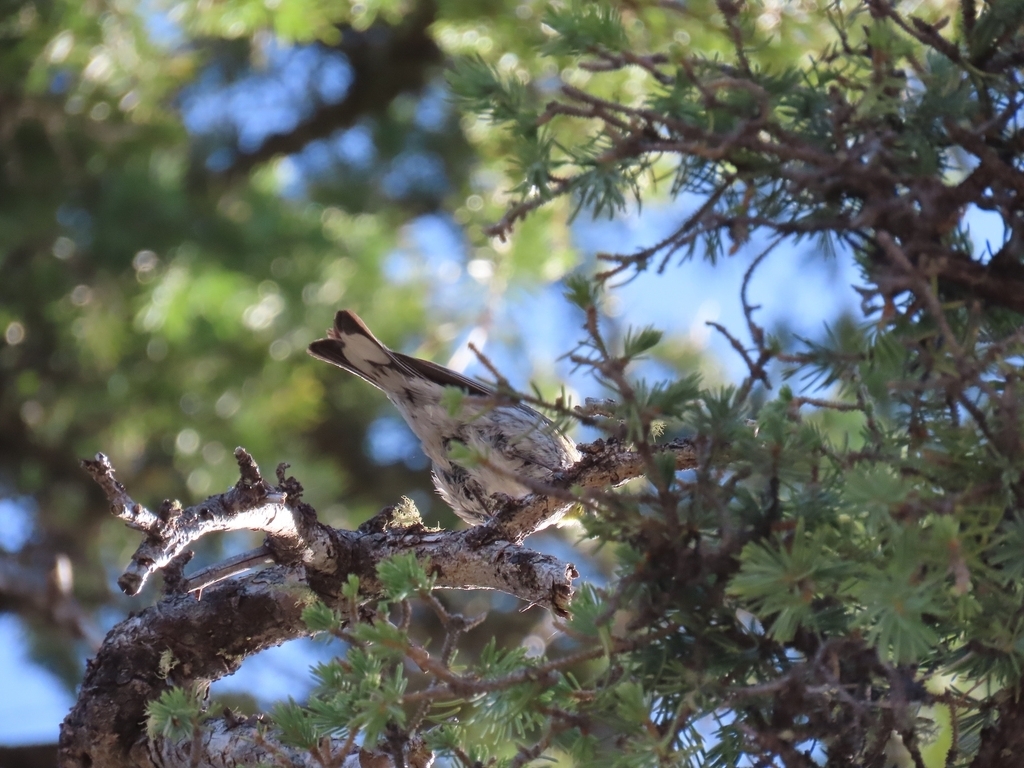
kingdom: Animalia
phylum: Chordata
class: Aves
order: Passeriformes
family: Parulidae
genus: Setophaga
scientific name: Setophaga auduboni
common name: Audubon's warbler
